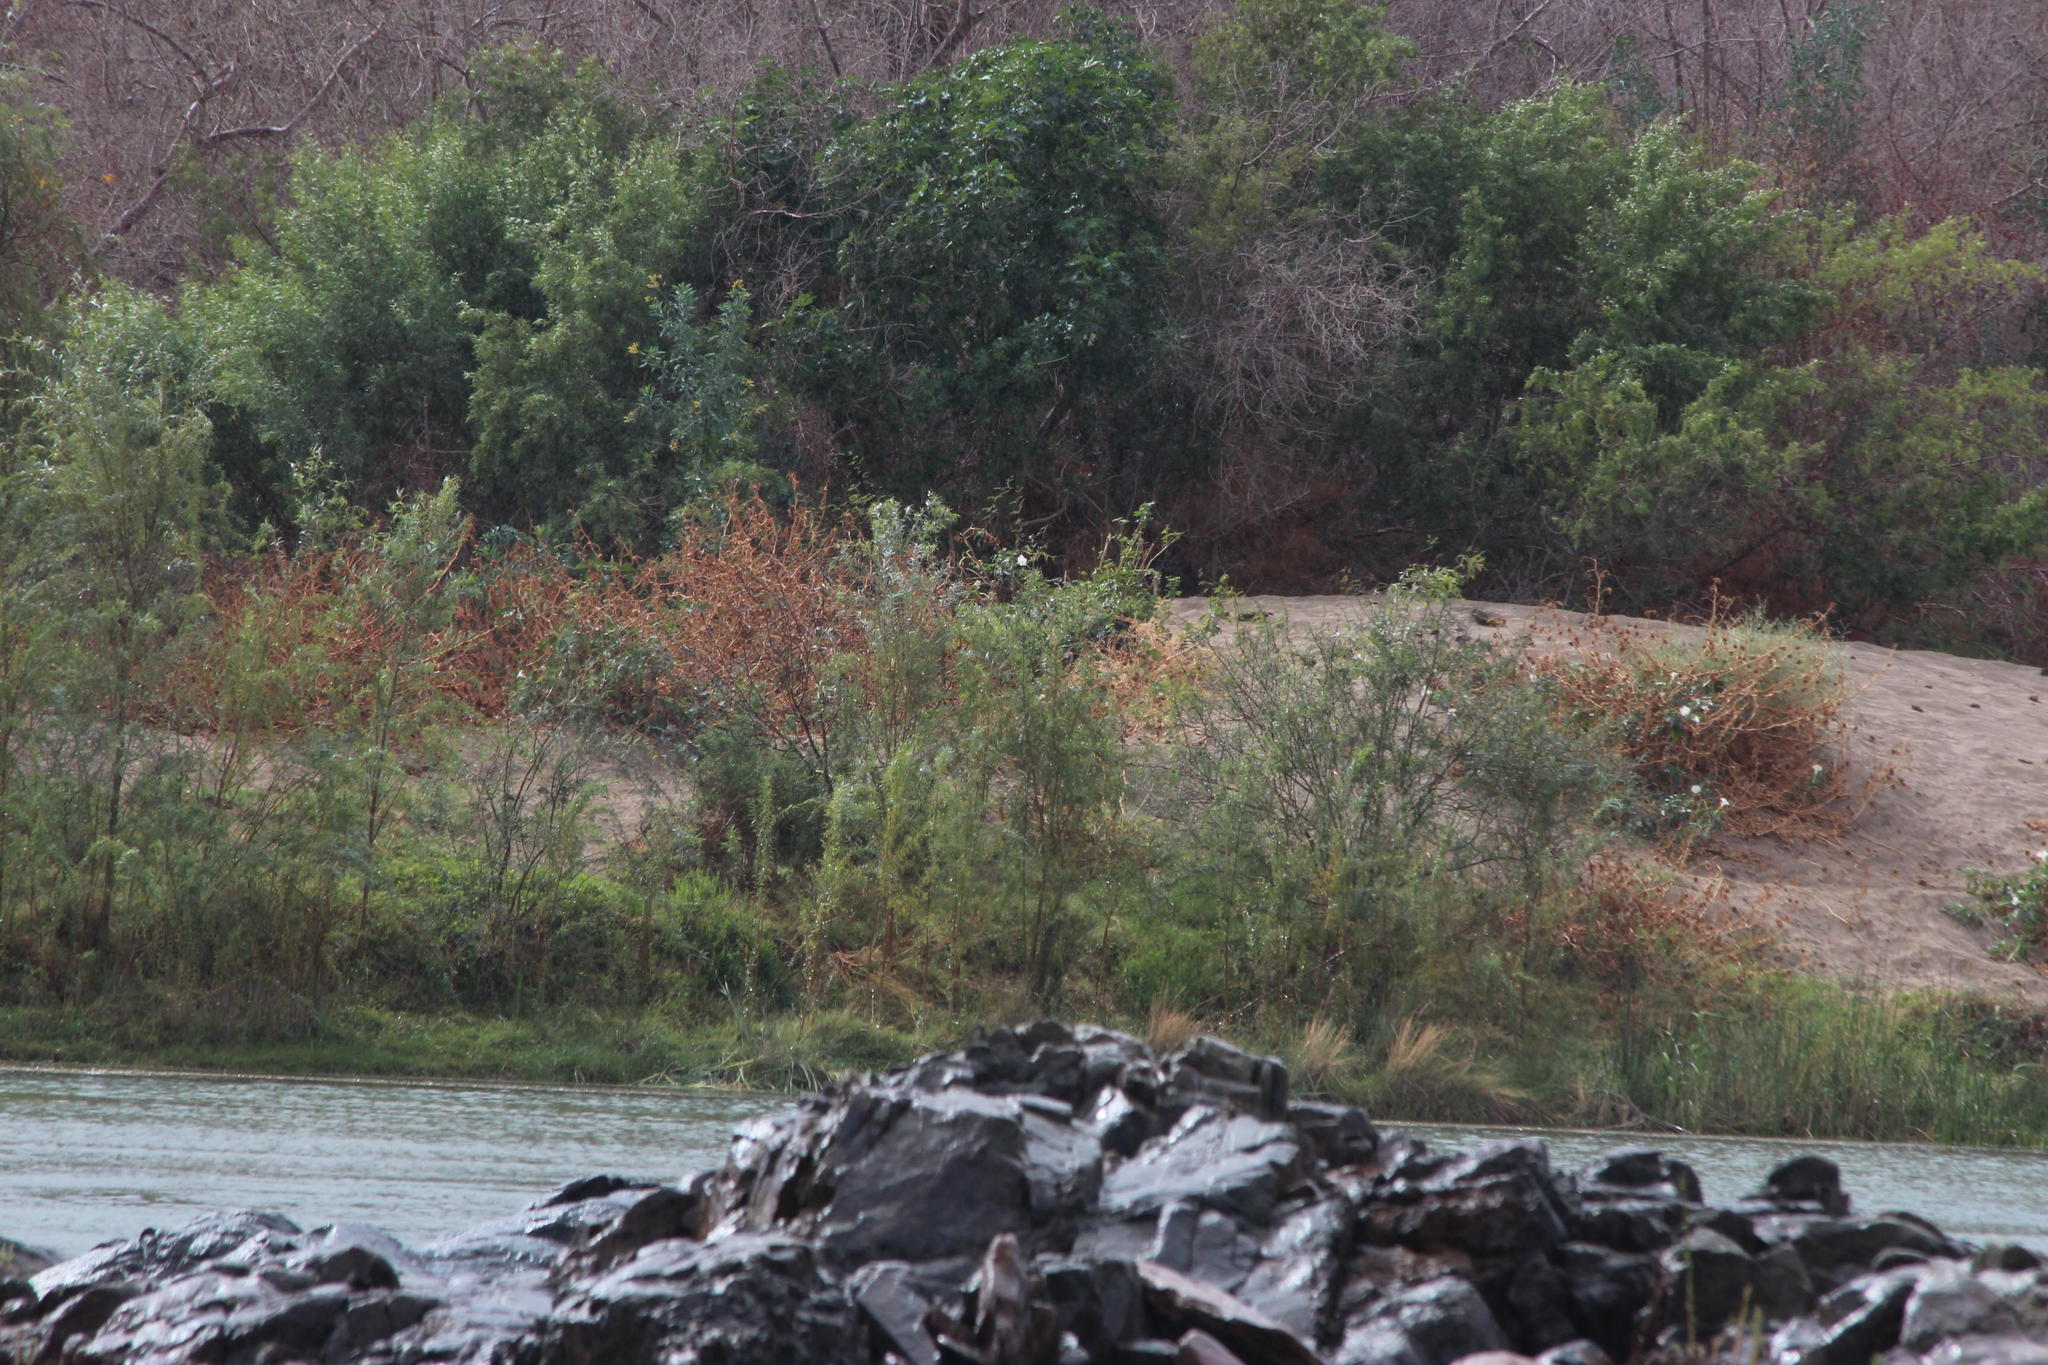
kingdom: Plantae
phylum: Tracheophyta
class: Magnoliopsida
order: Solanales
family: Solanaceae
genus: Nicotiana
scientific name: Nicotiana glauca
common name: Tree tobacco
